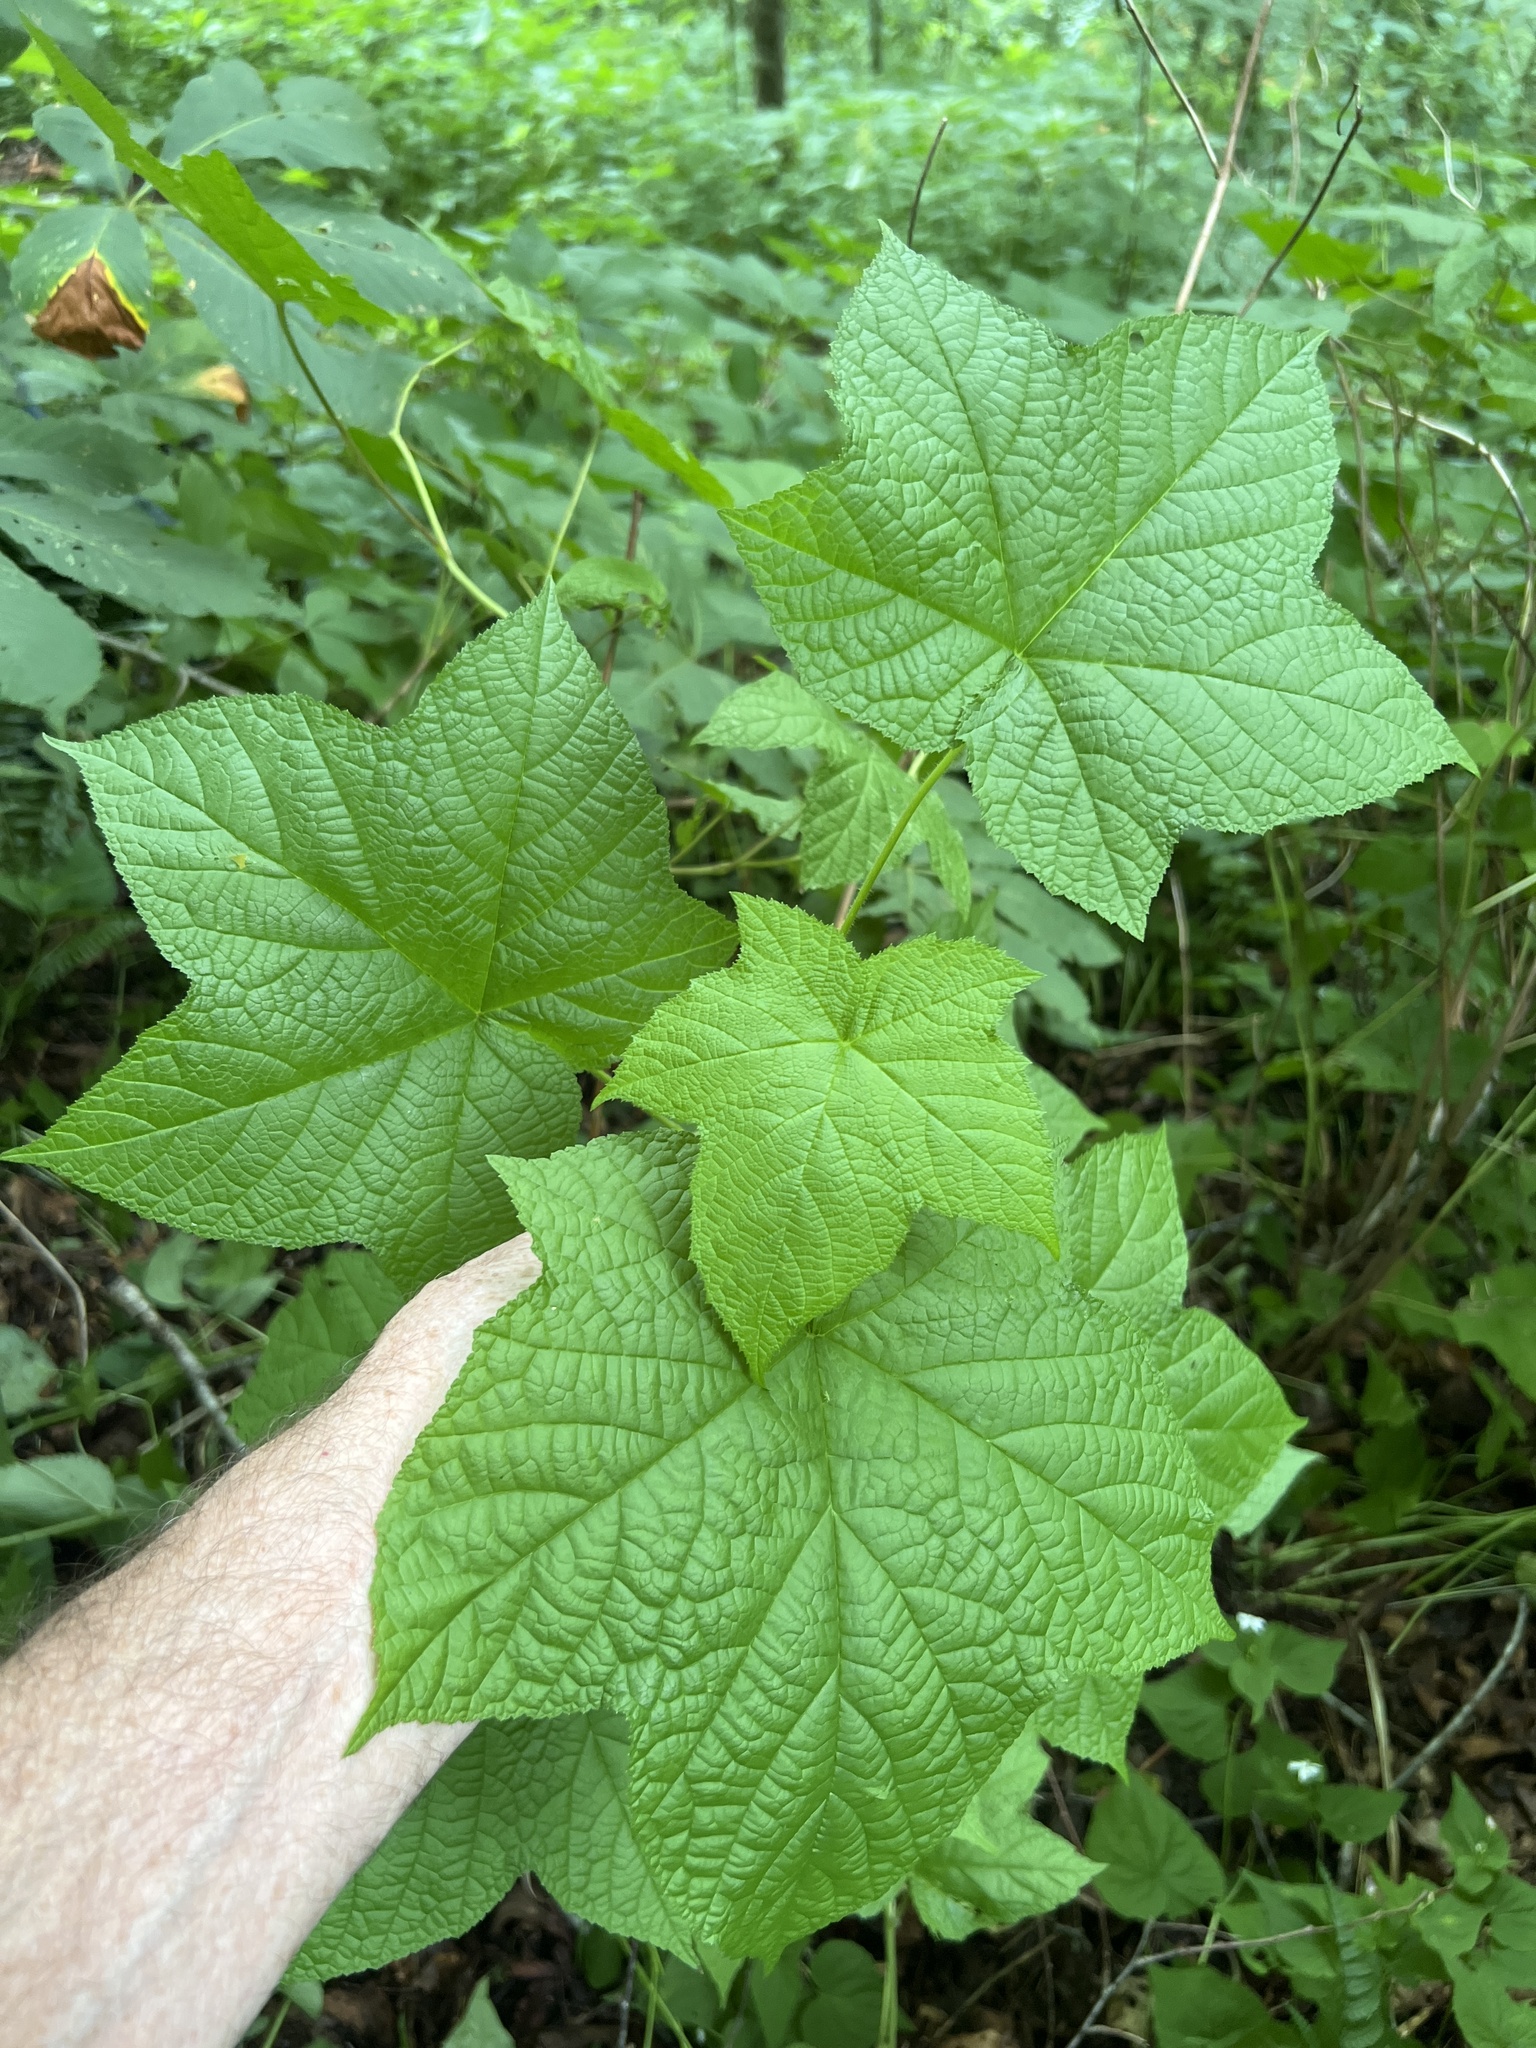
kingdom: Plantae
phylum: Tracheophyta
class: Magnoliopsida
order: Rosales
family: Rosaceae
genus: Rubus
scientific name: Rubus odoratus
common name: Purple-flowered raspberry
